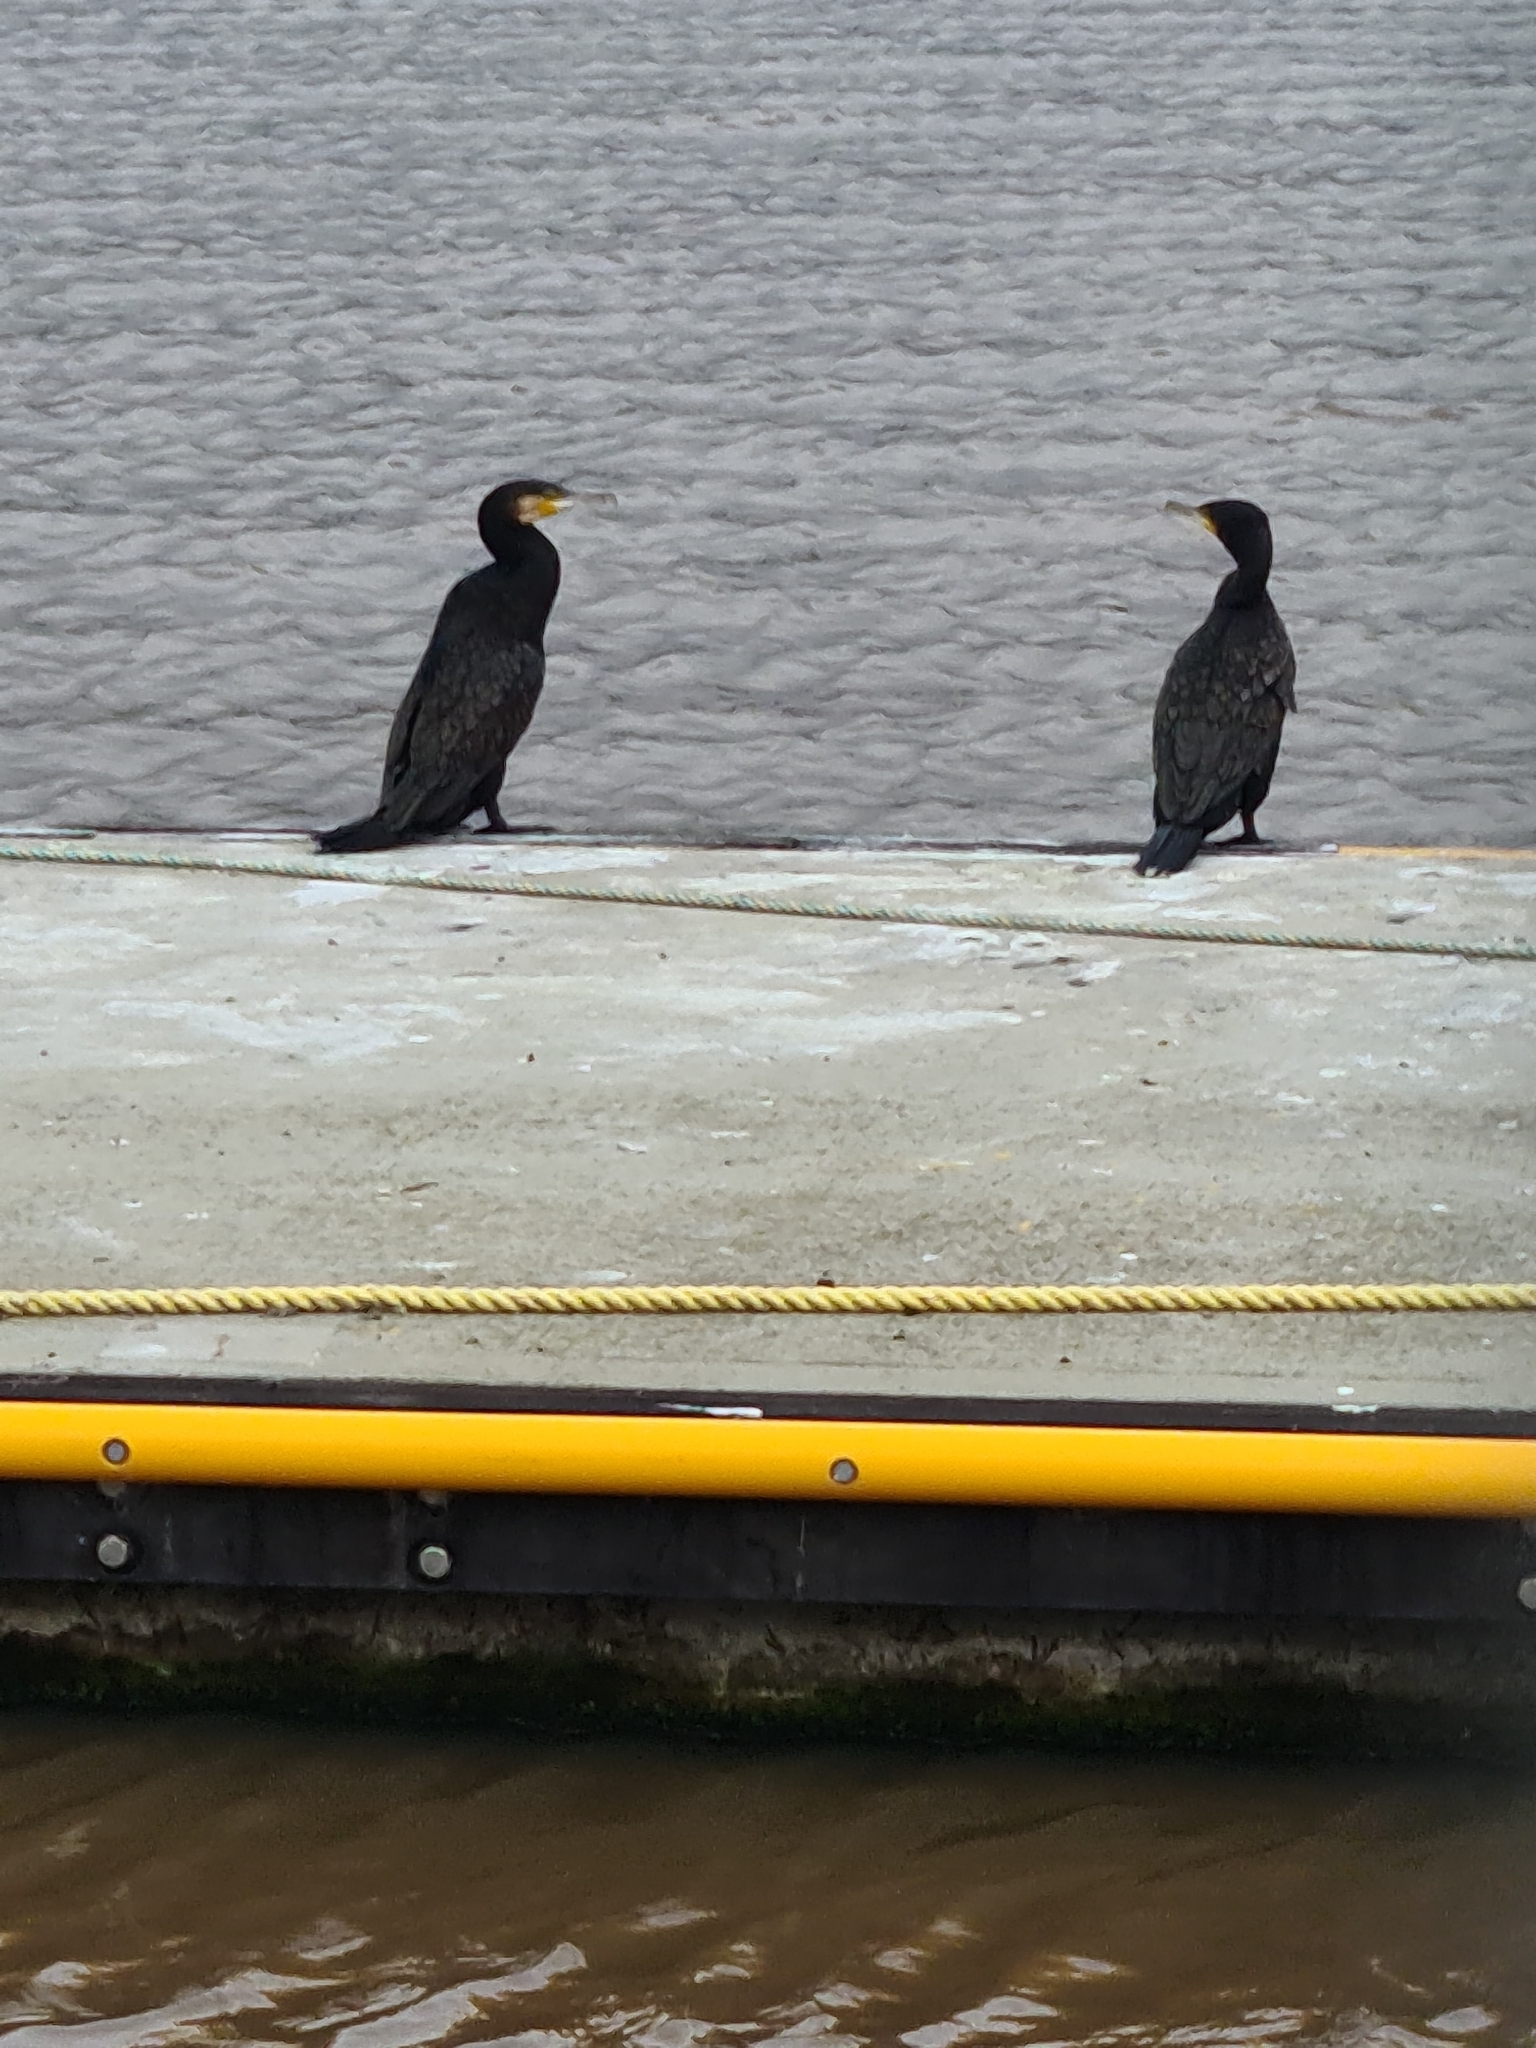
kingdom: Animalia
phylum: Chordata
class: Aves
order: Suliformes
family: Phalacrocoracidae
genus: Phalacrocorax
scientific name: Phalacrocorax carbo
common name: Great cormorant
